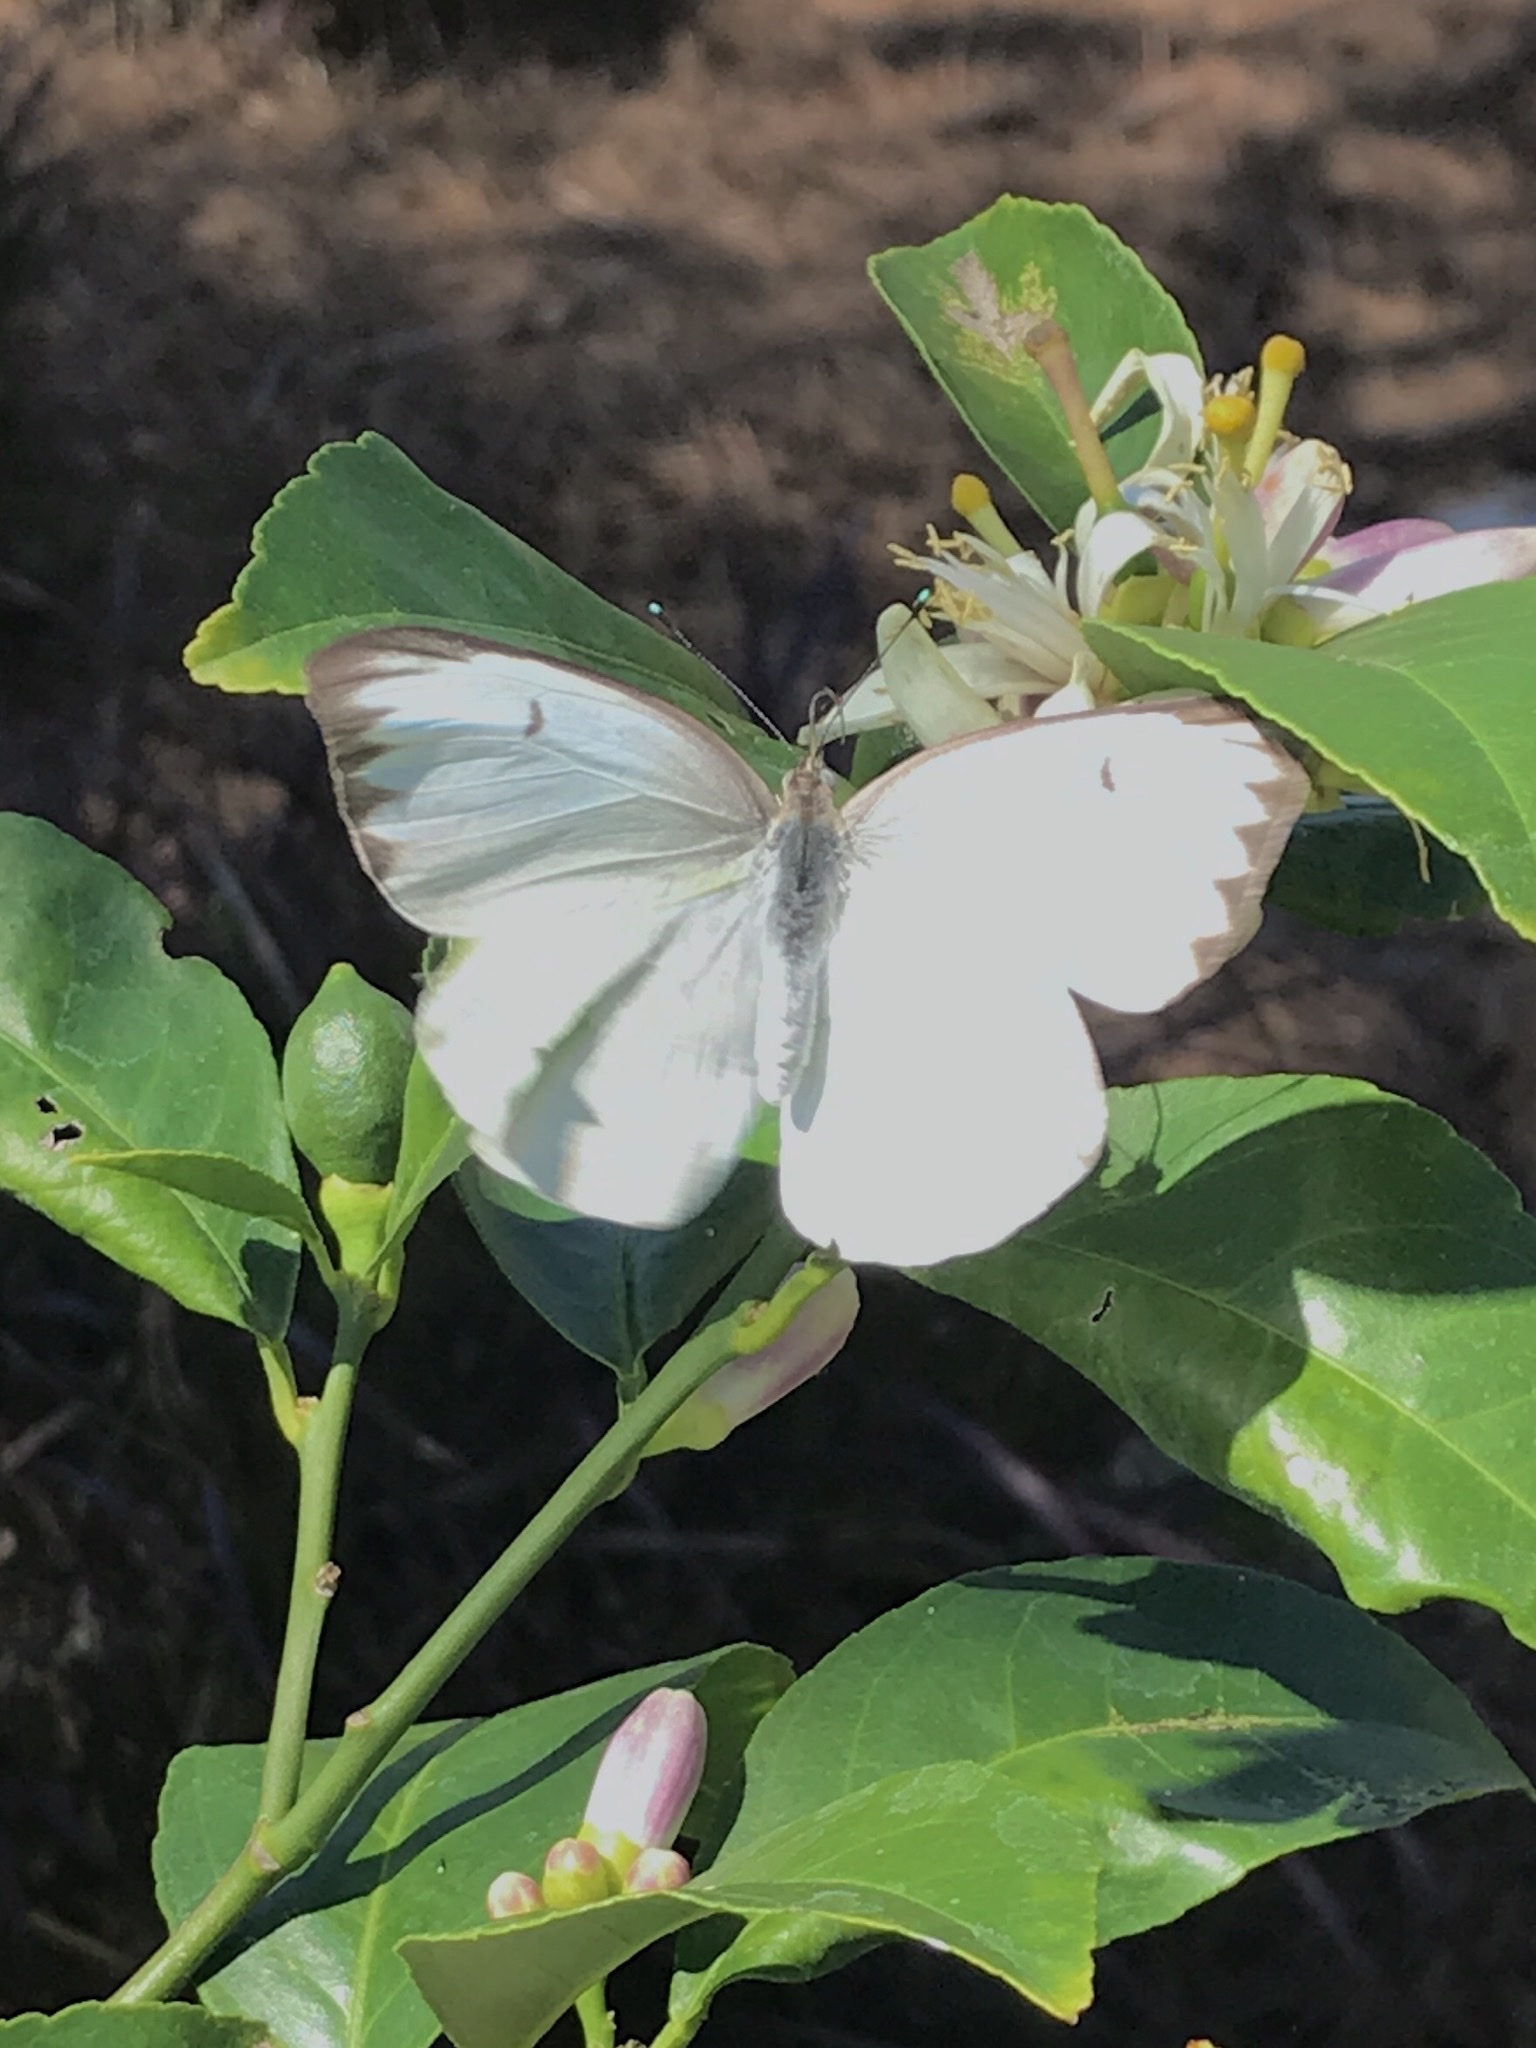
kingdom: Animalia
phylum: Arthropoda
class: Insecta
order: Lepidoptera
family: Pieridae
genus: Ascia
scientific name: Ascia monuste
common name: Great southern white
